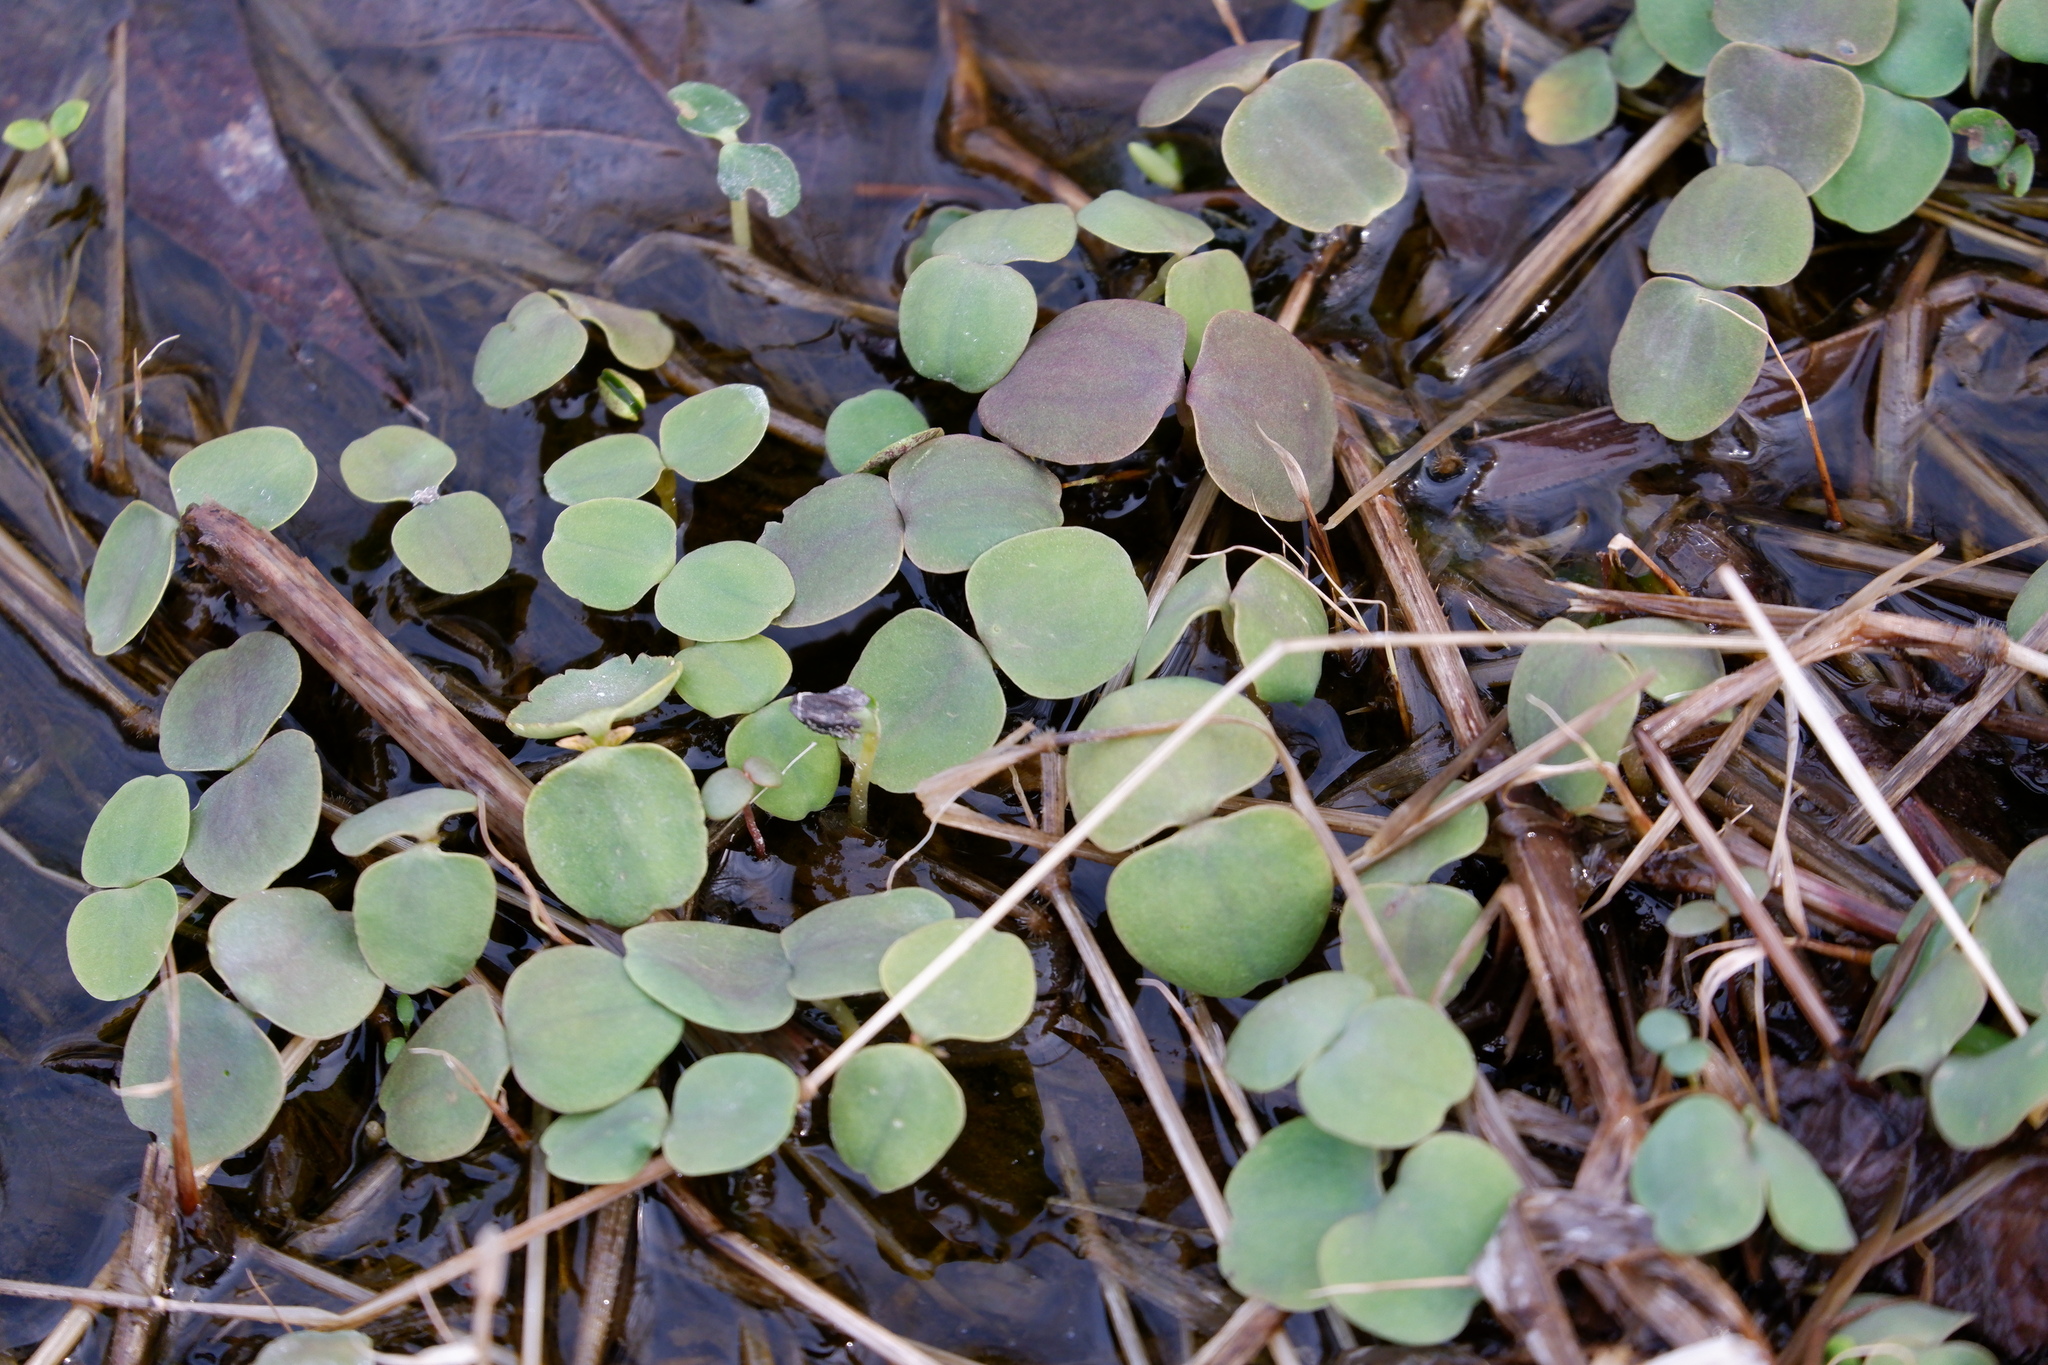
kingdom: Plantae
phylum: Tracheophyta
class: Magnoliopsida
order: Ericales
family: Balsaminaceae
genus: Impatiens
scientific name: Impatiens
